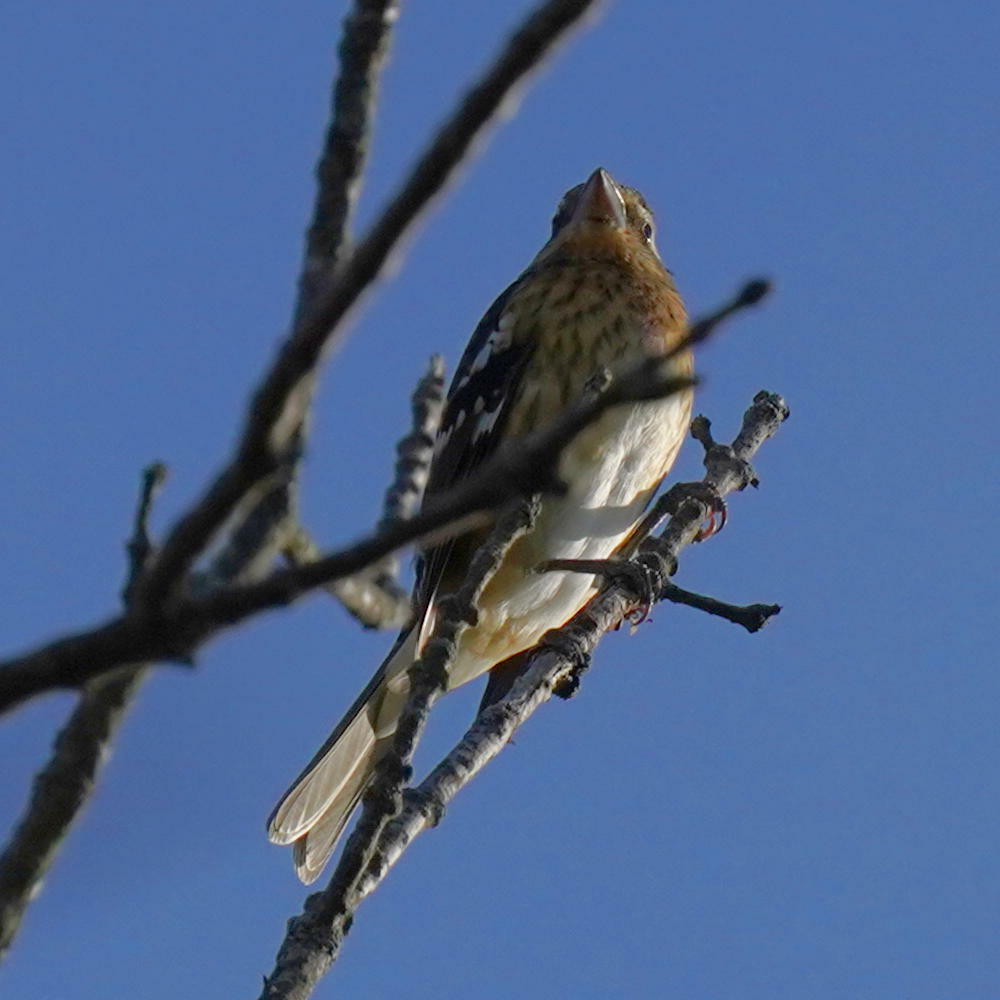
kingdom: Animalia
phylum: Chordata
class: Aves
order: Passeriformes
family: Cardinalidae
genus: Pheucticus
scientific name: Pheucticus ludovicianus
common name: Rose-breasted grosbeak
